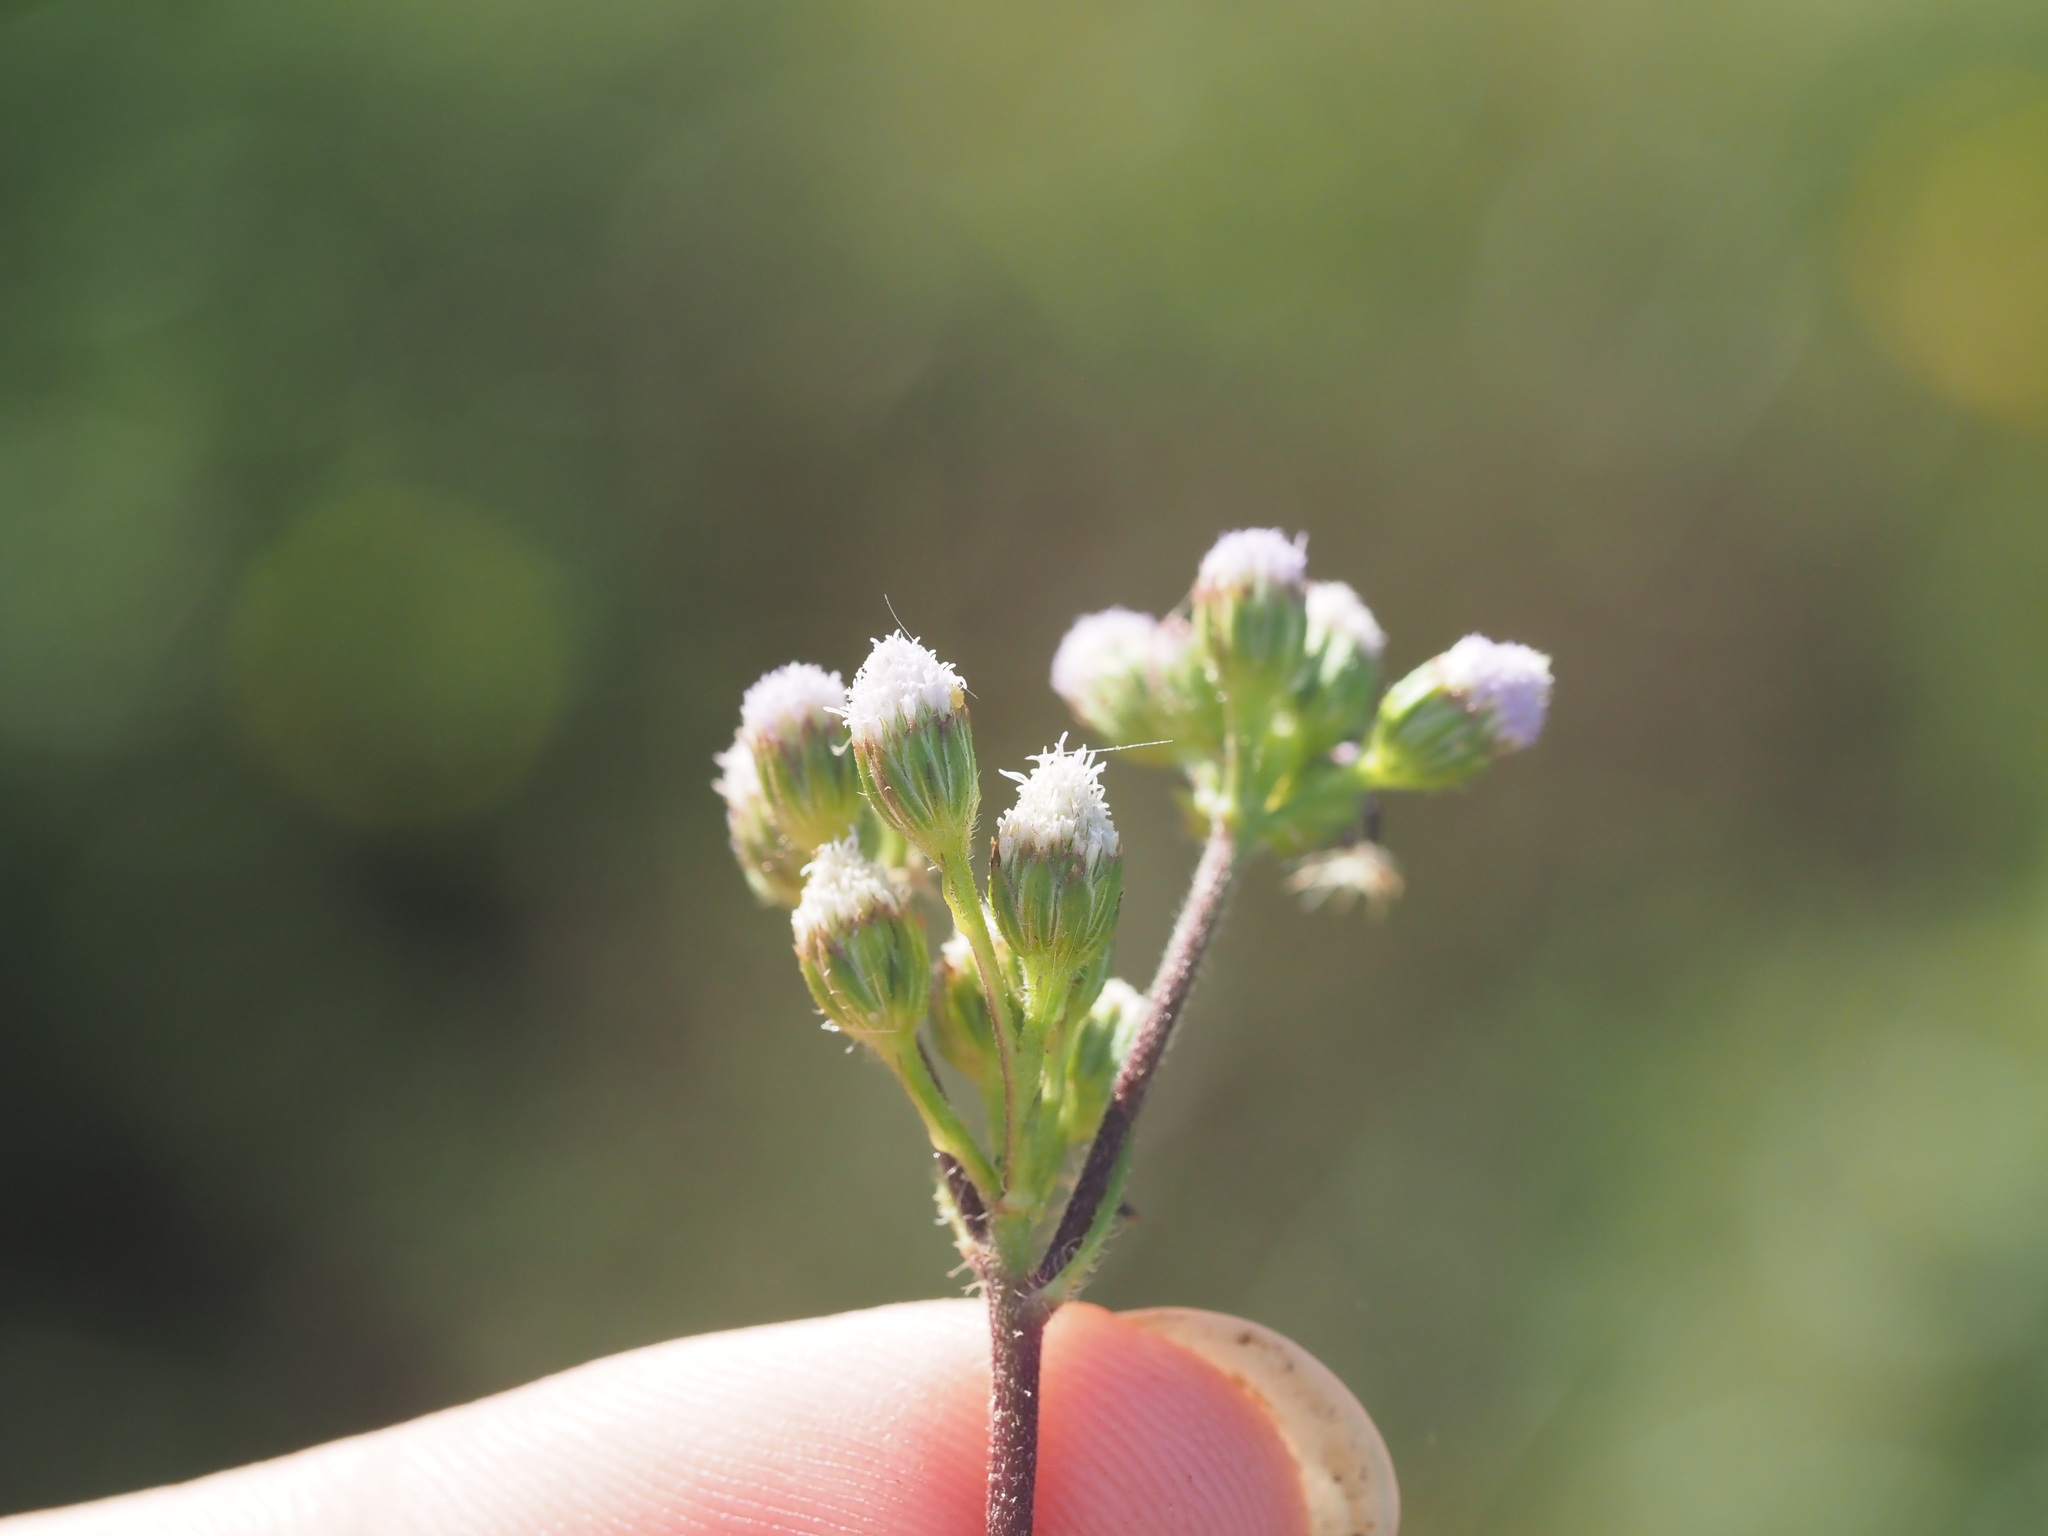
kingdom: Plantae
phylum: Tracheophyta
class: Magnoliopsida
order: Asterales
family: Asteraceae
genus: Ageratum
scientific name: Ageratum conyzoides
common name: Tropical whiteweed
